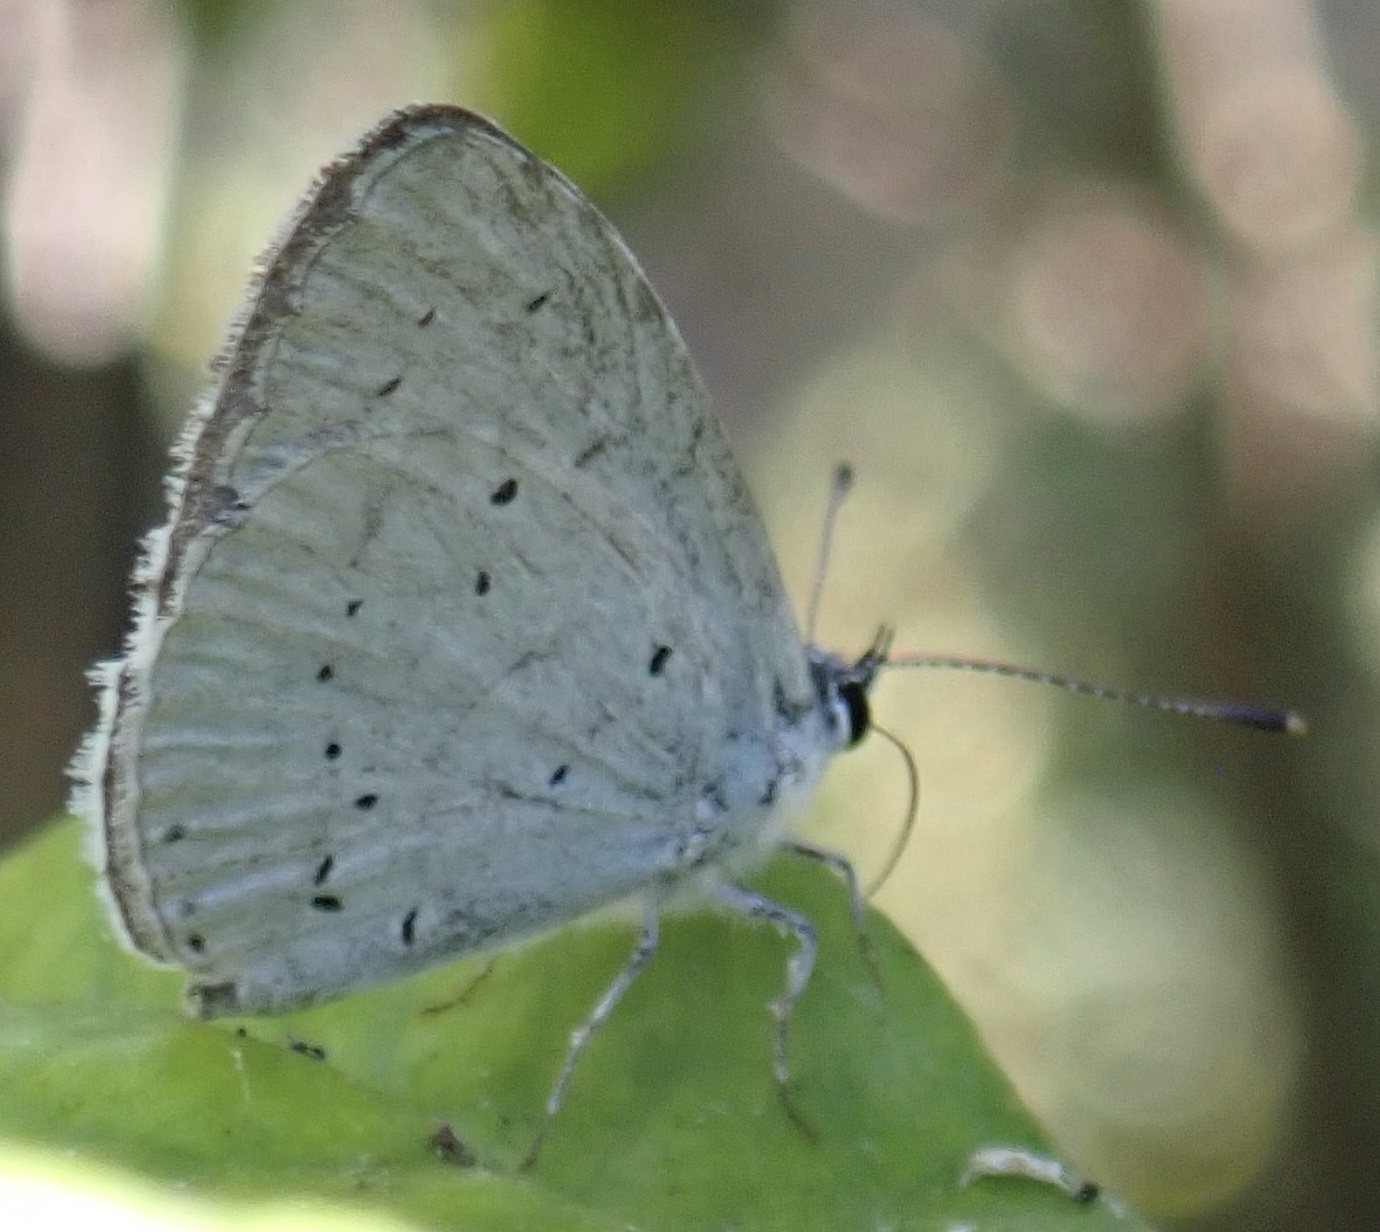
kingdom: Animalia
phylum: Arthropoda
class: Insecta
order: Lepidoptera
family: Lycaenidae
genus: Celastrina
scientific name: Celastrina argiolus
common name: Holly blue
